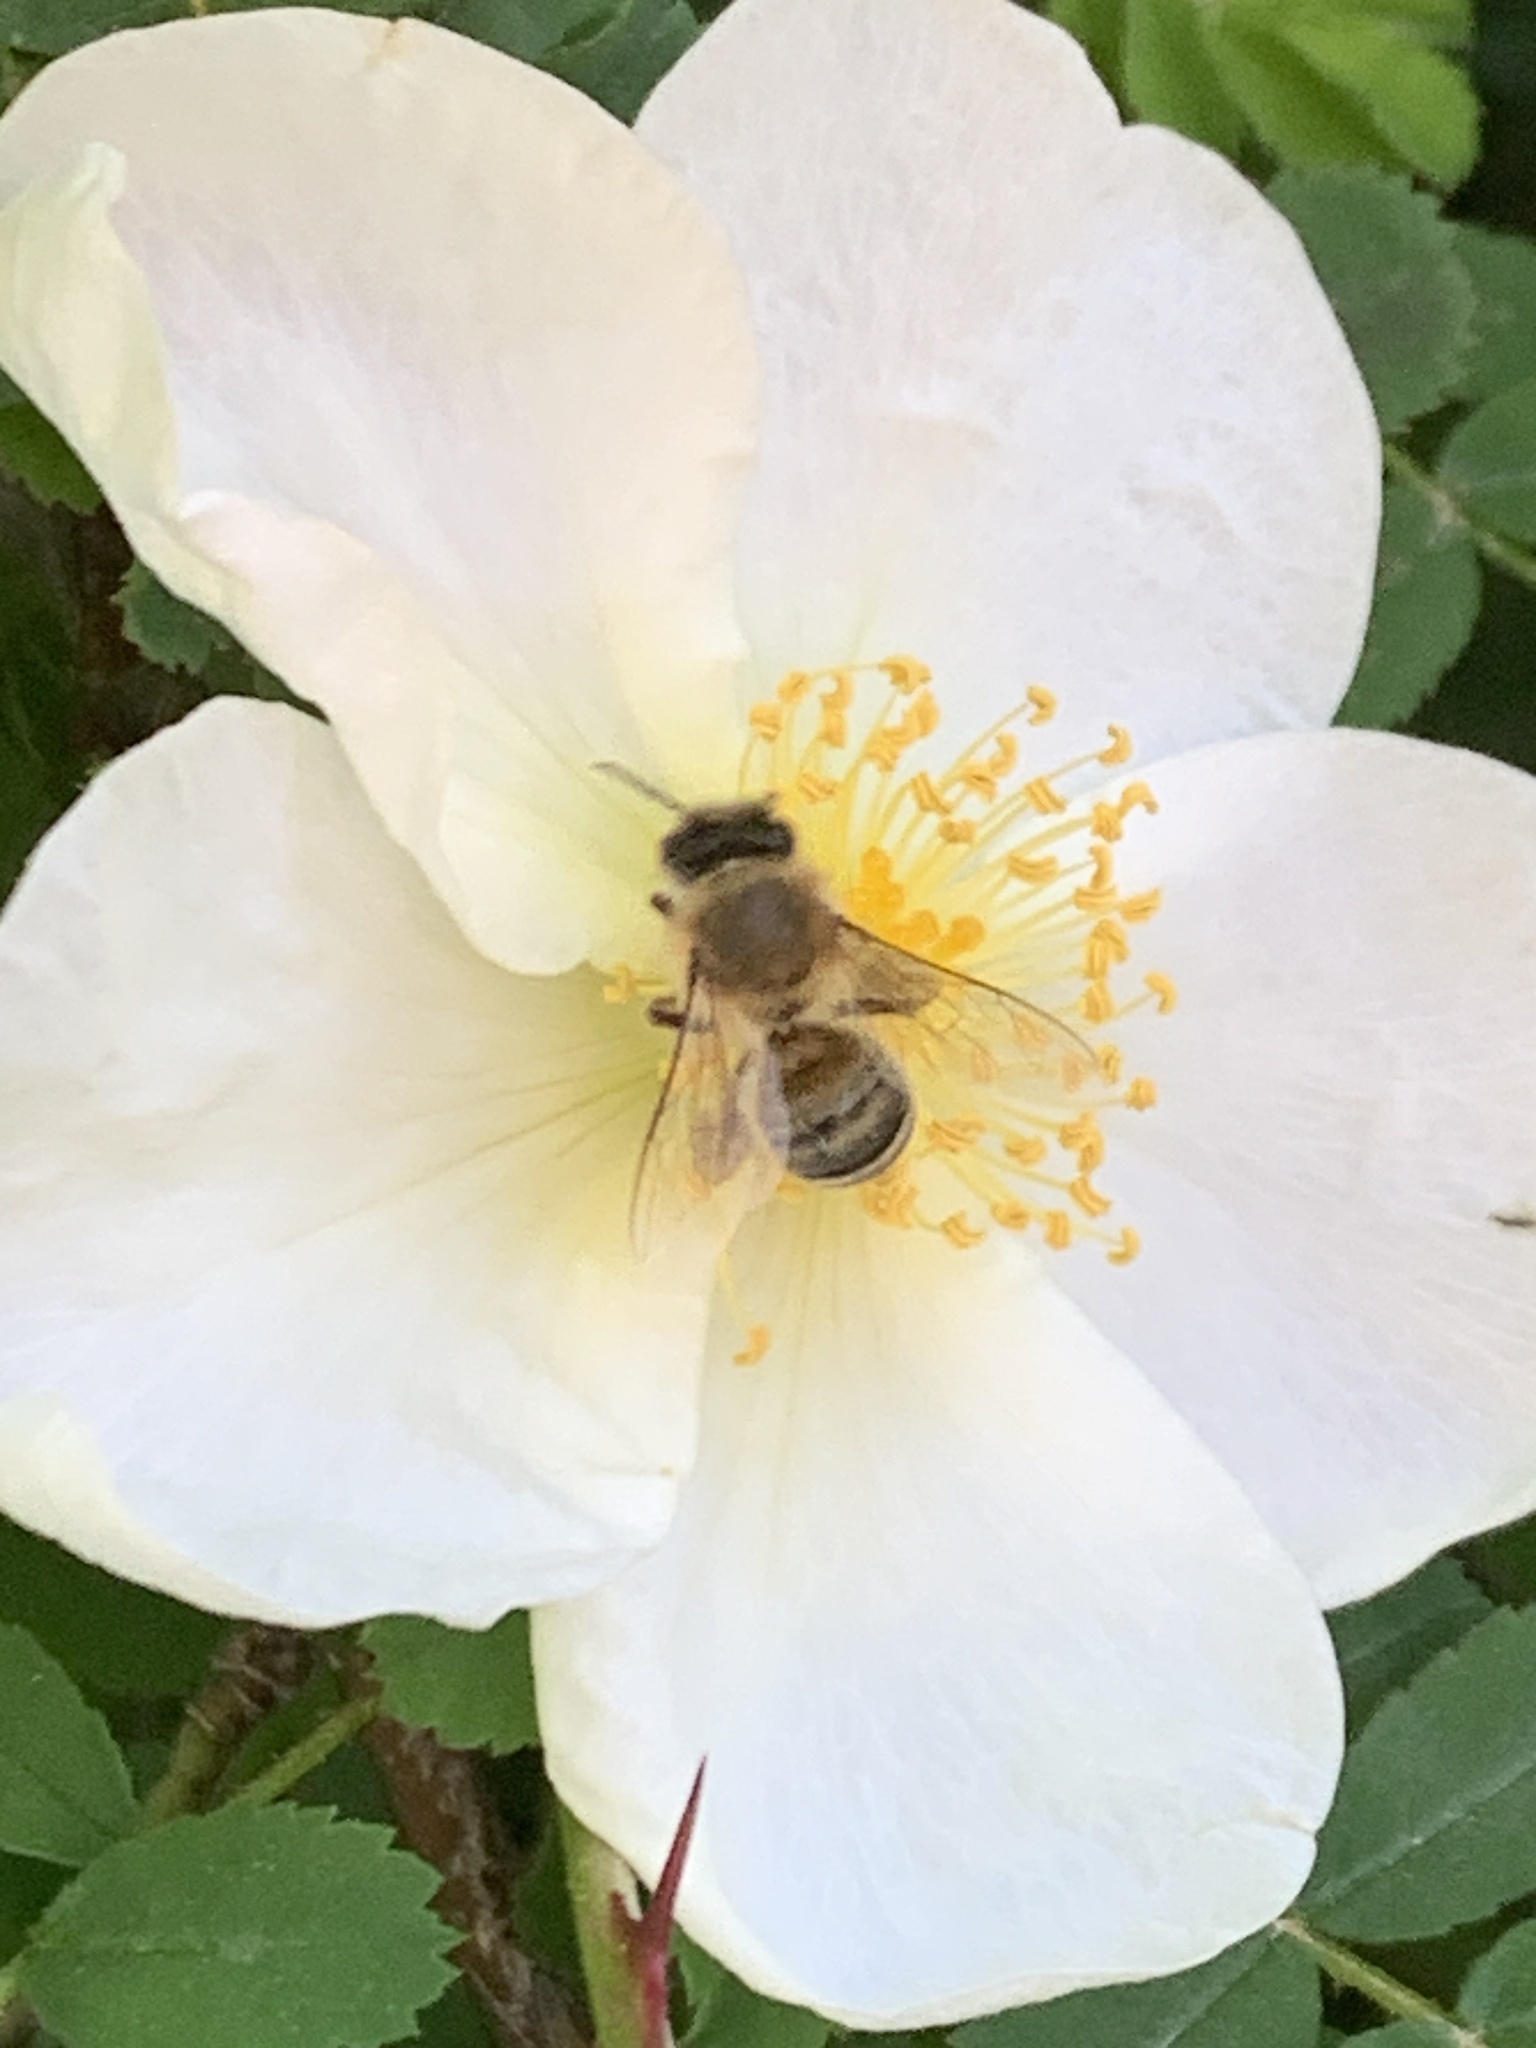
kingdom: Animalia
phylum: Arthropoda
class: Insecta
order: Hymenoptera
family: Apidae
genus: Apis
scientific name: Apis mellifera
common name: Honey bee
